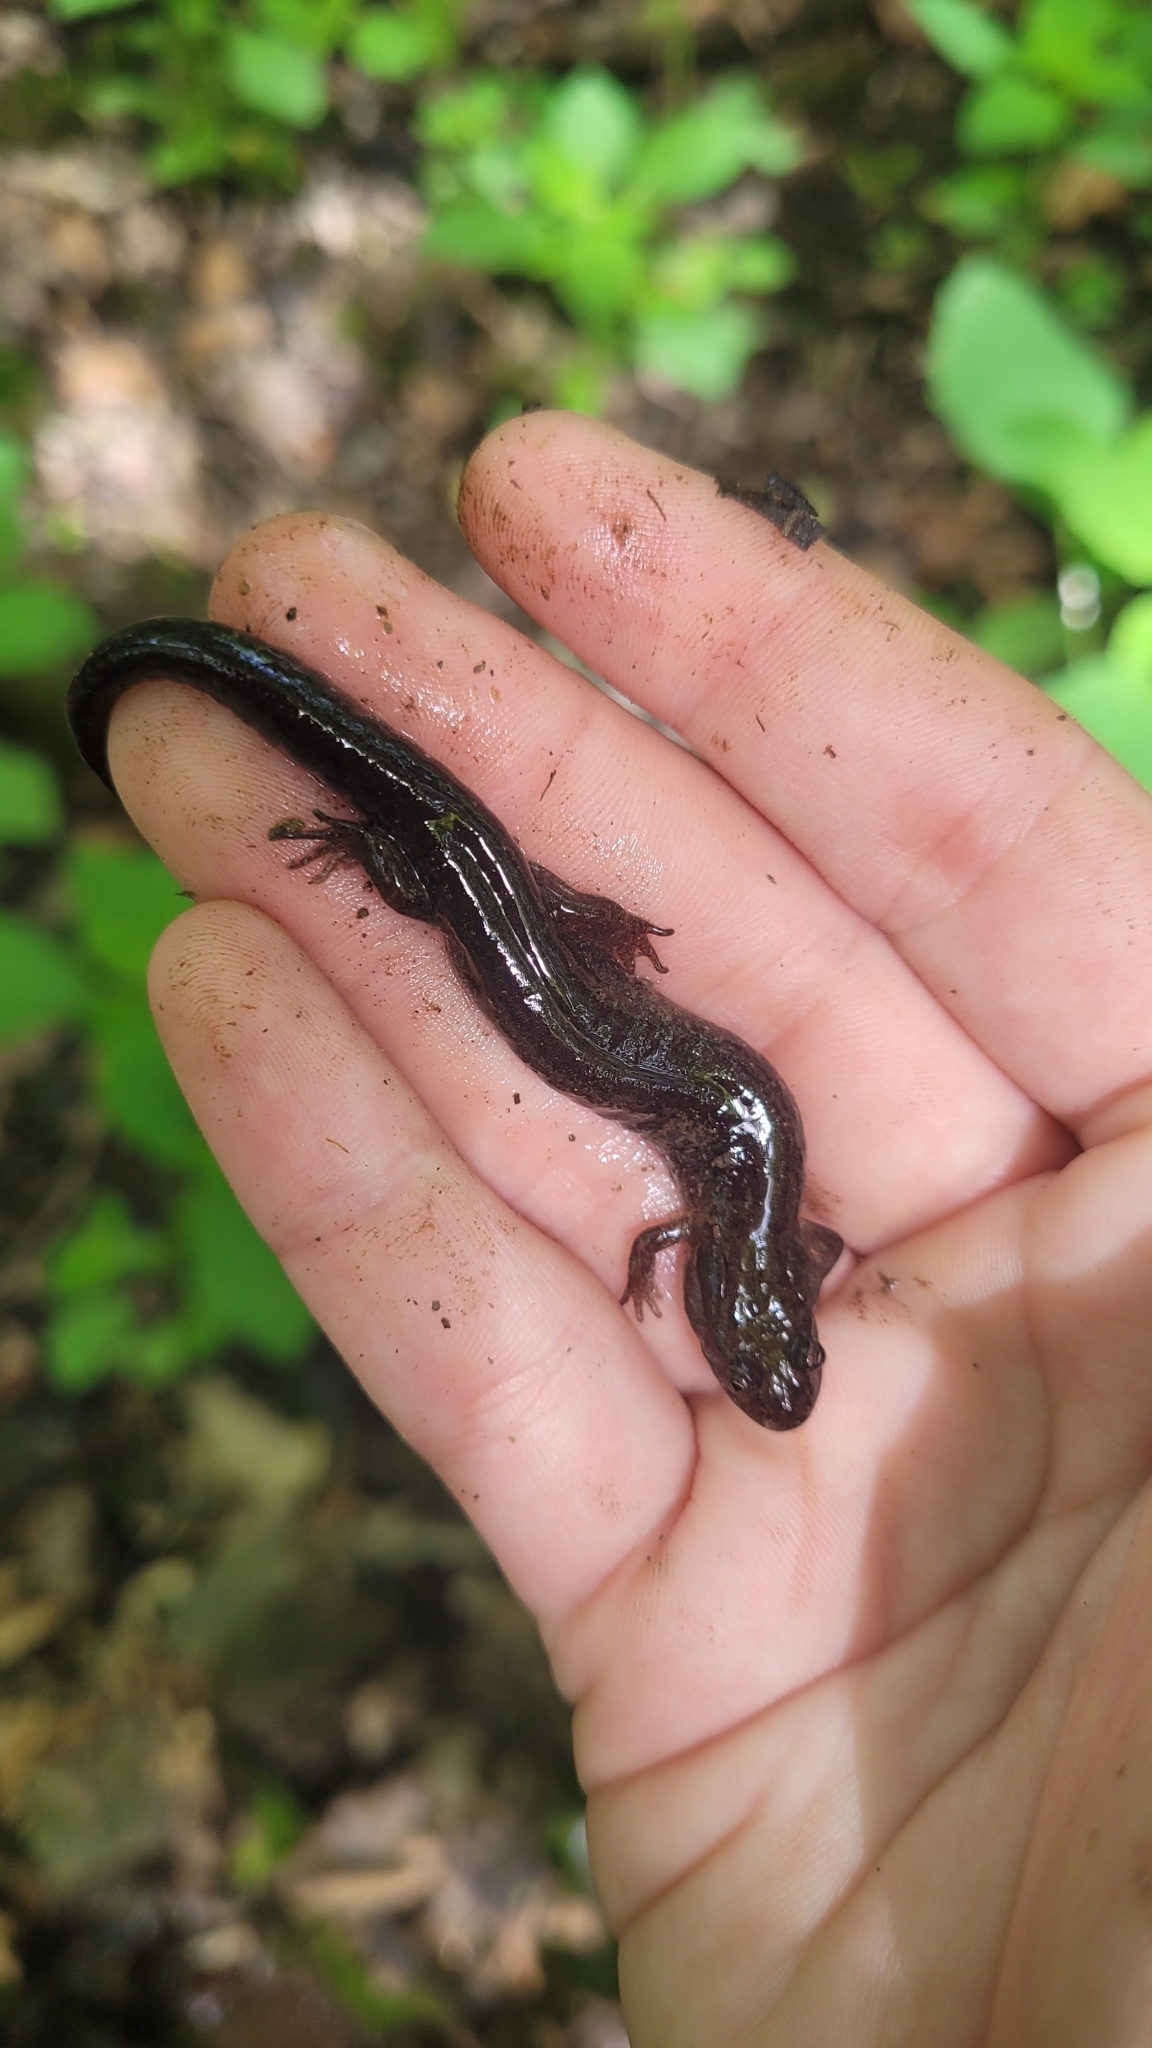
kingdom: Animalia
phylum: Chordata
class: Amphibia
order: Caudata
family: Plethodontidae
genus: Desmognathus
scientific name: Desmognathus fuscus
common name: Northern dusky salamander
